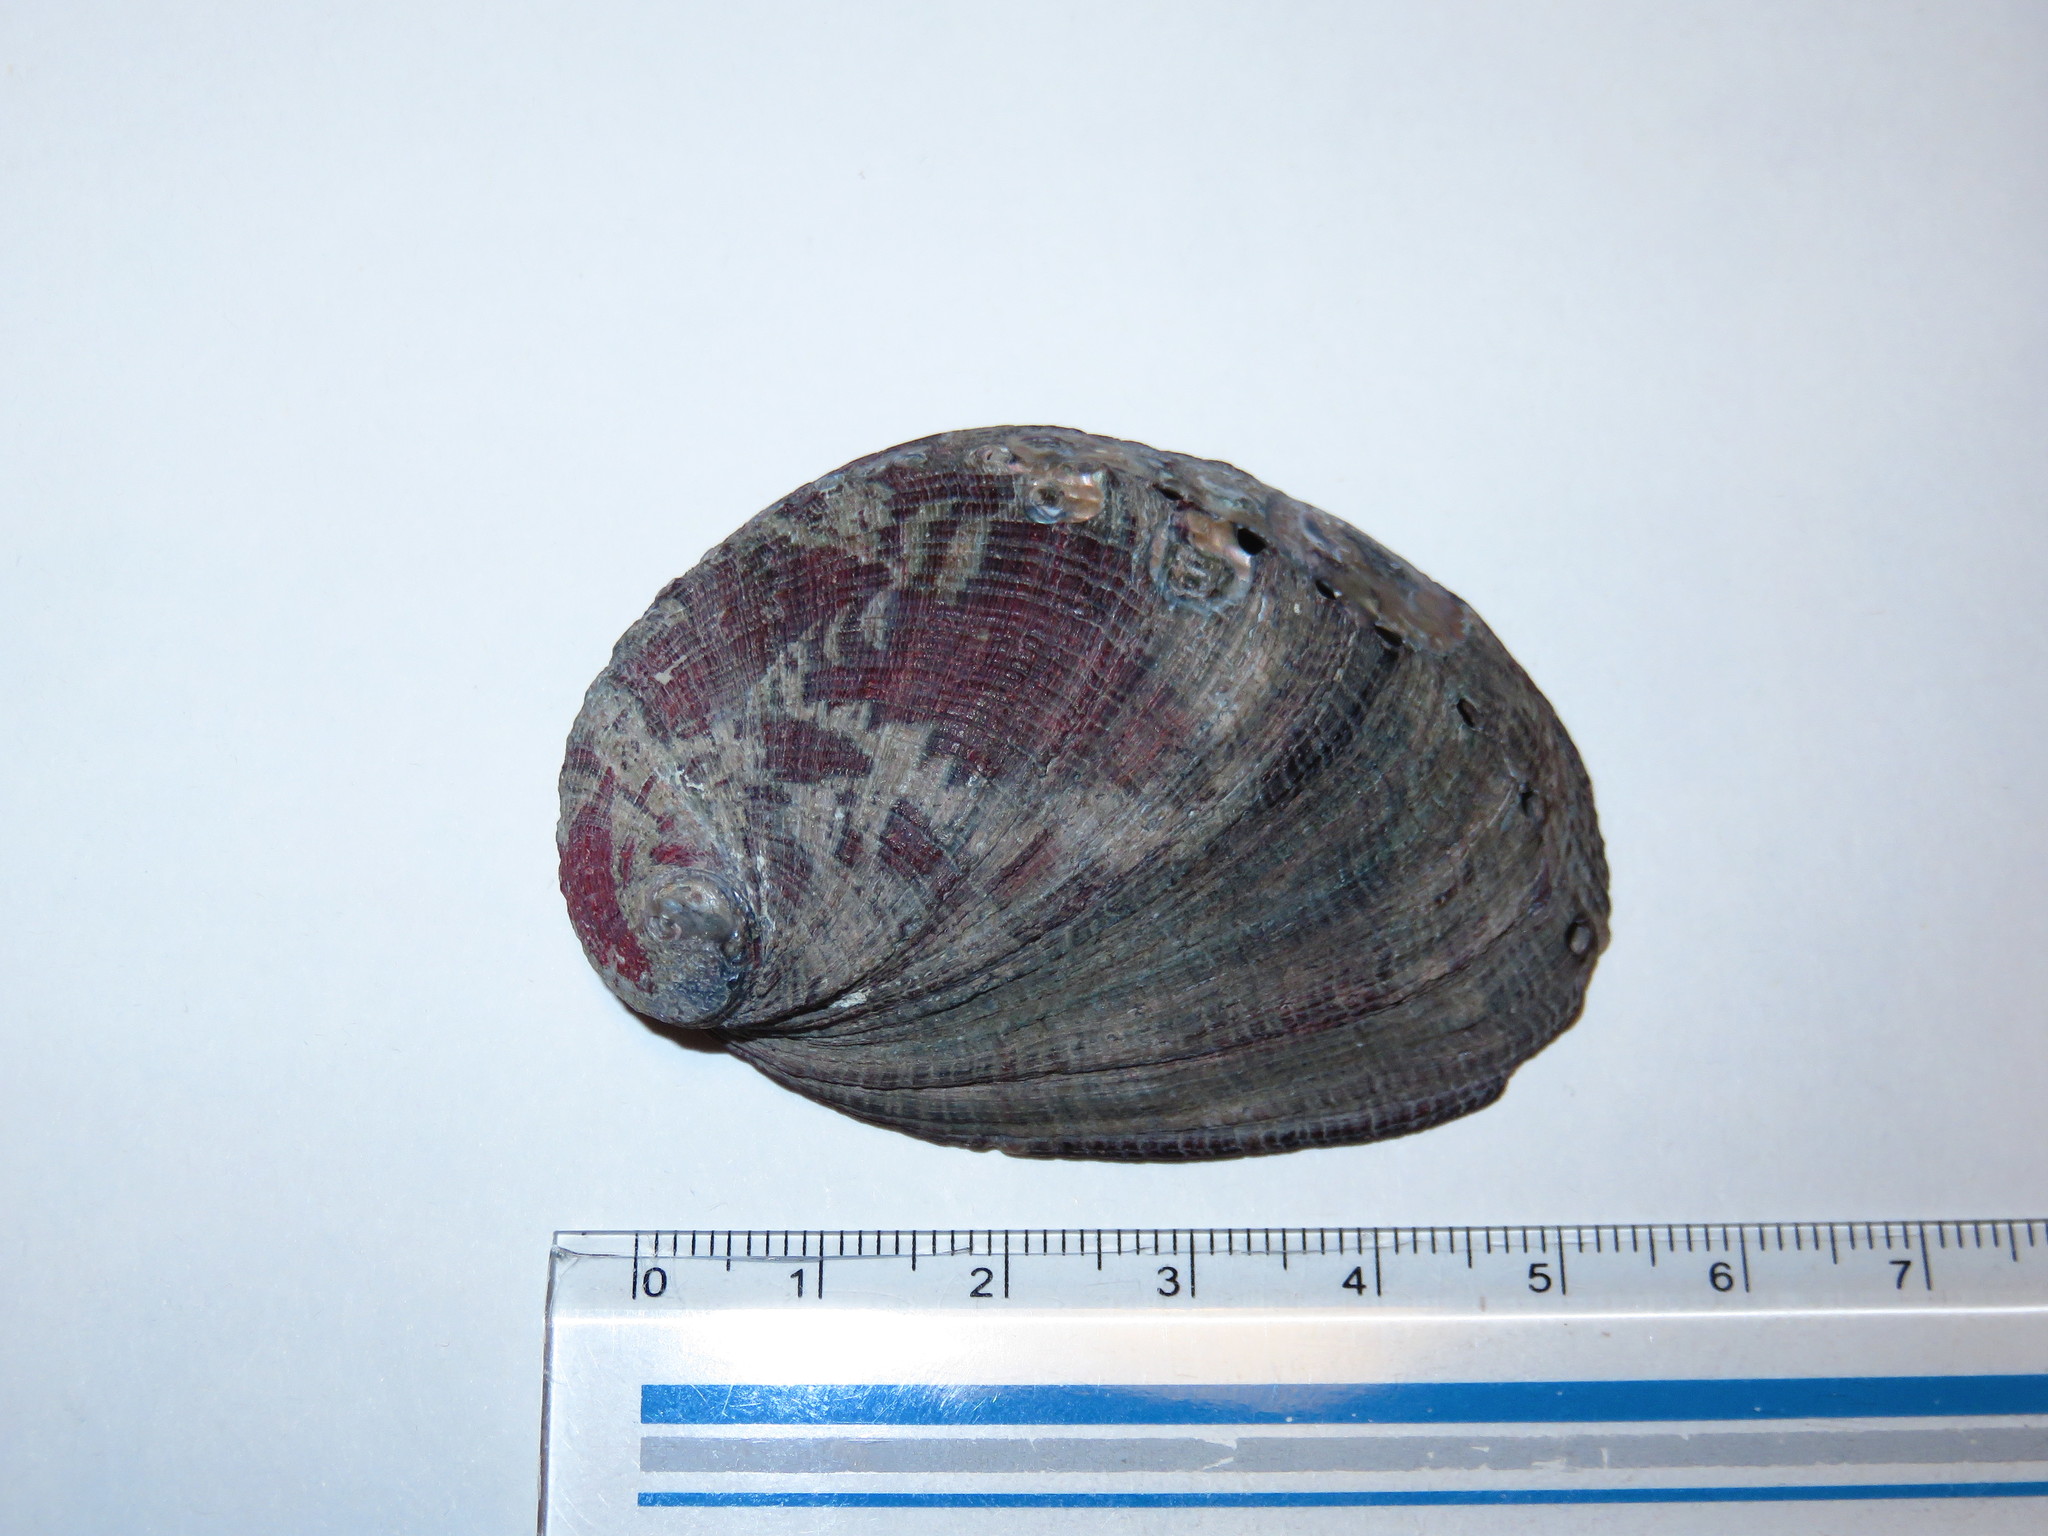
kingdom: Animalia
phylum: Mollusca
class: Gastropoda
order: Lepetellida
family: Haliotidae
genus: Haliotis
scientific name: Haliotis diversicolor
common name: Multicolored abalone
